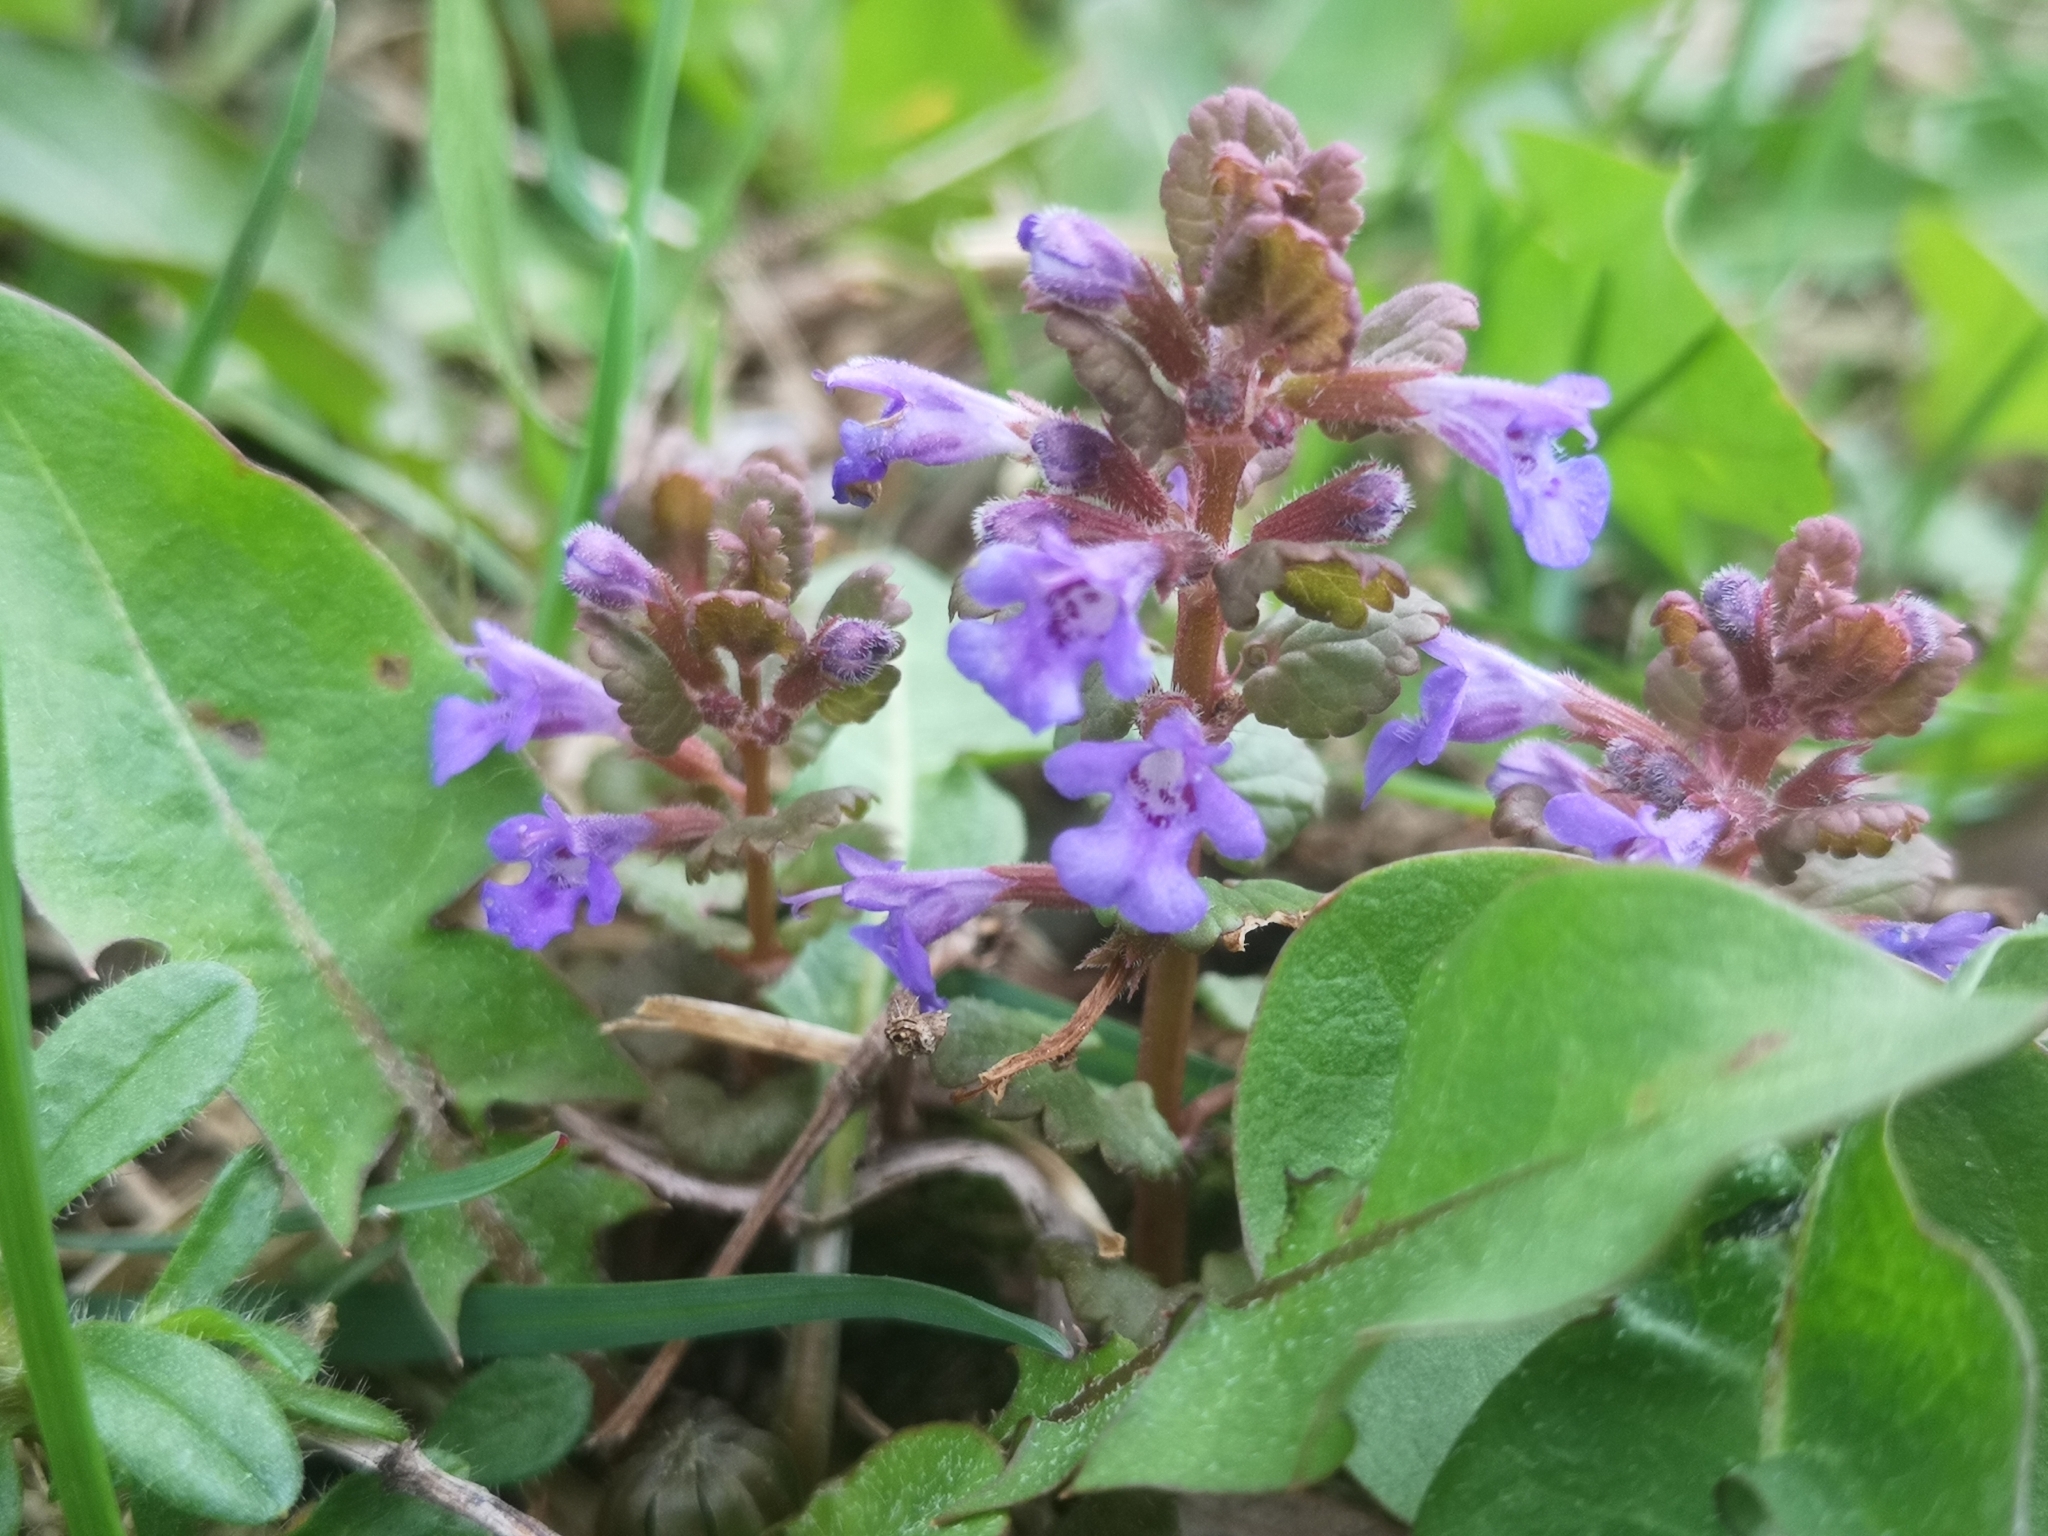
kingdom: Plantae
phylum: Tracheophyta
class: Magnoliopsida
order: Lamiales
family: Lamiaceae
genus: Glechoma
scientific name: Glechoma hederacea
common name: Ground ivy
